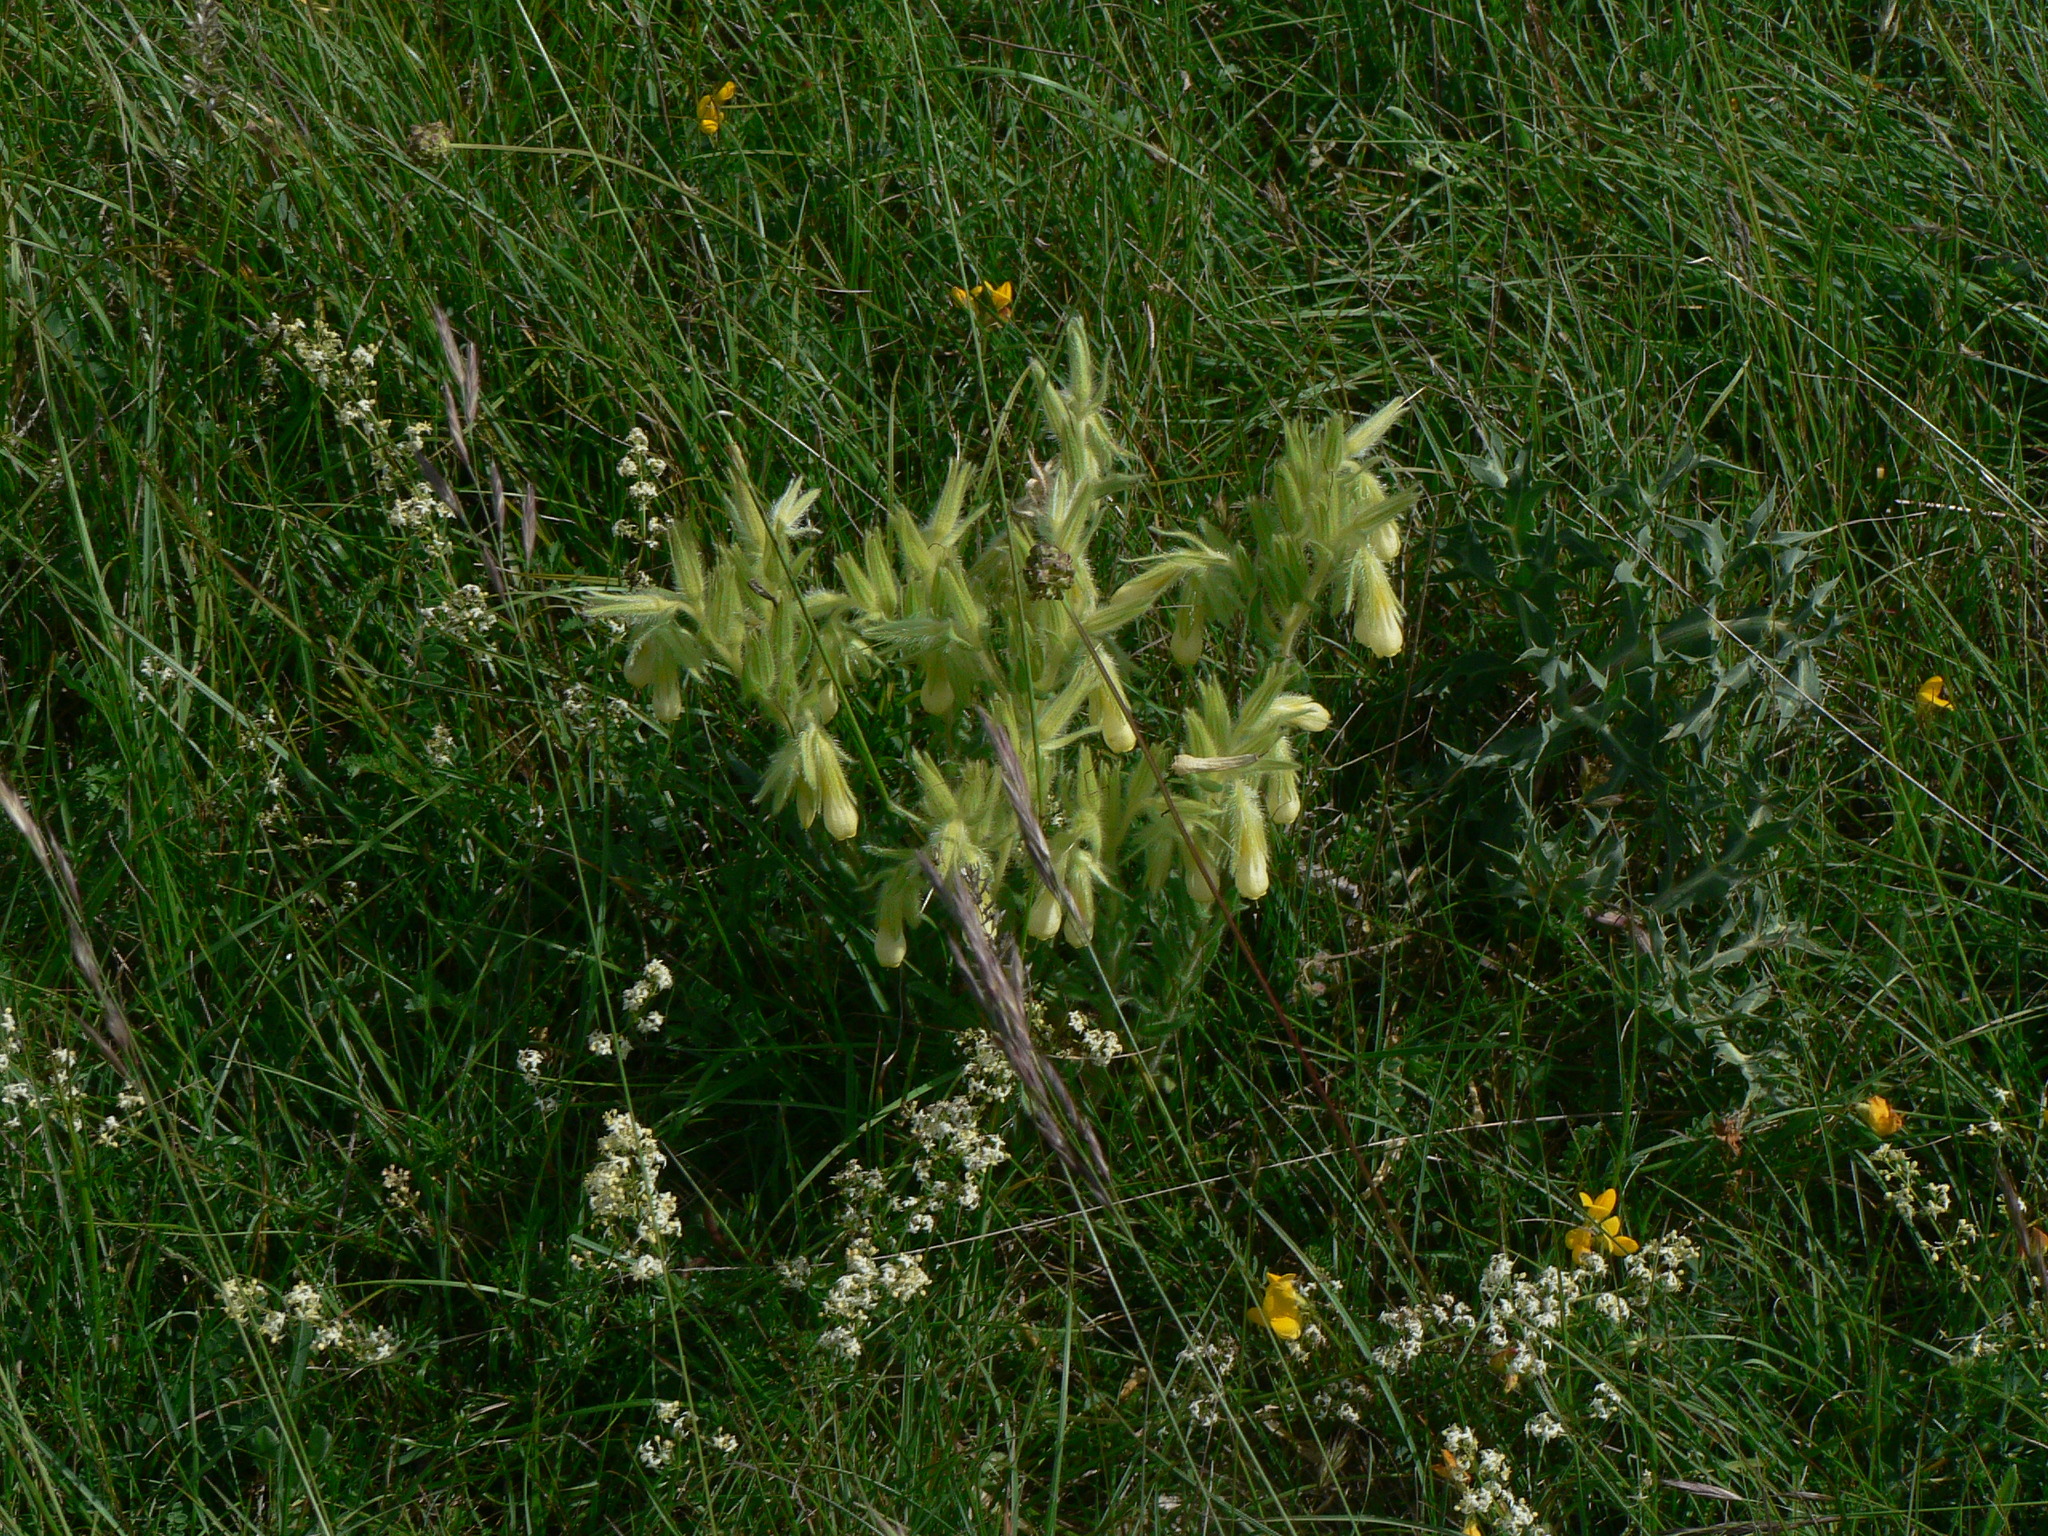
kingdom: Plantae
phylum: Tracheophyta
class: Magnoliopsida
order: Boraginales
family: Boraginaceae
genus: Onosma
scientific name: Onosma tricerosperma
